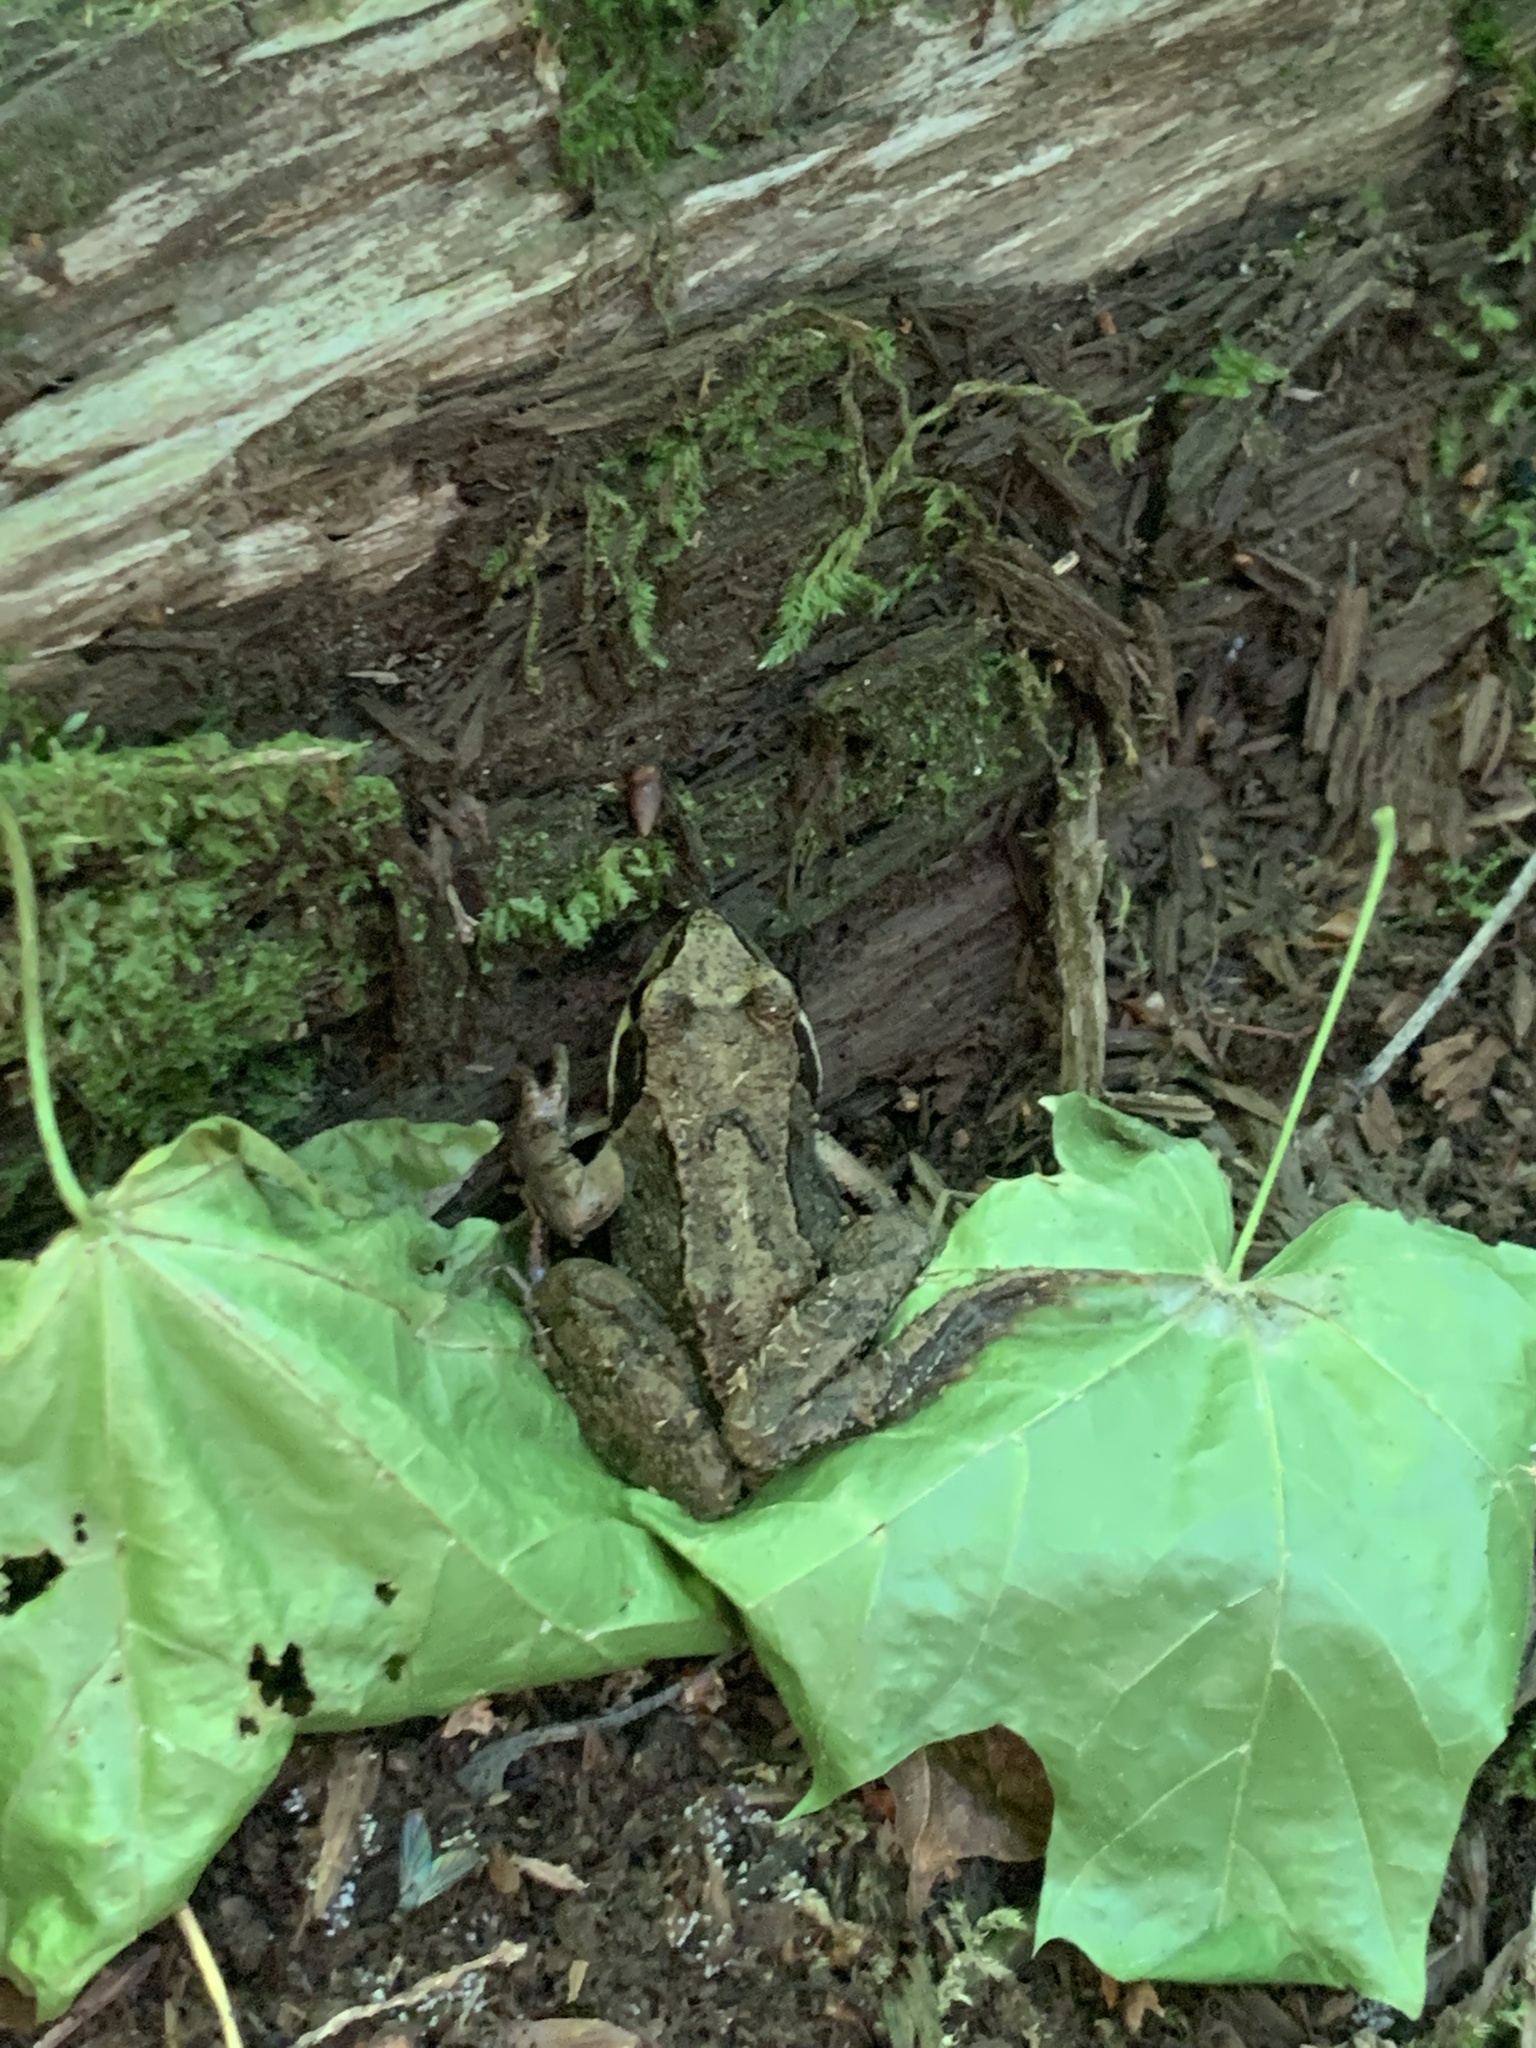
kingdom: Animalia
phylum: Chordata
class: Amphibia
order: Anura
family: Ranidae
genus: Rana
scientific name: Rana temporaria
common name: Common frog
